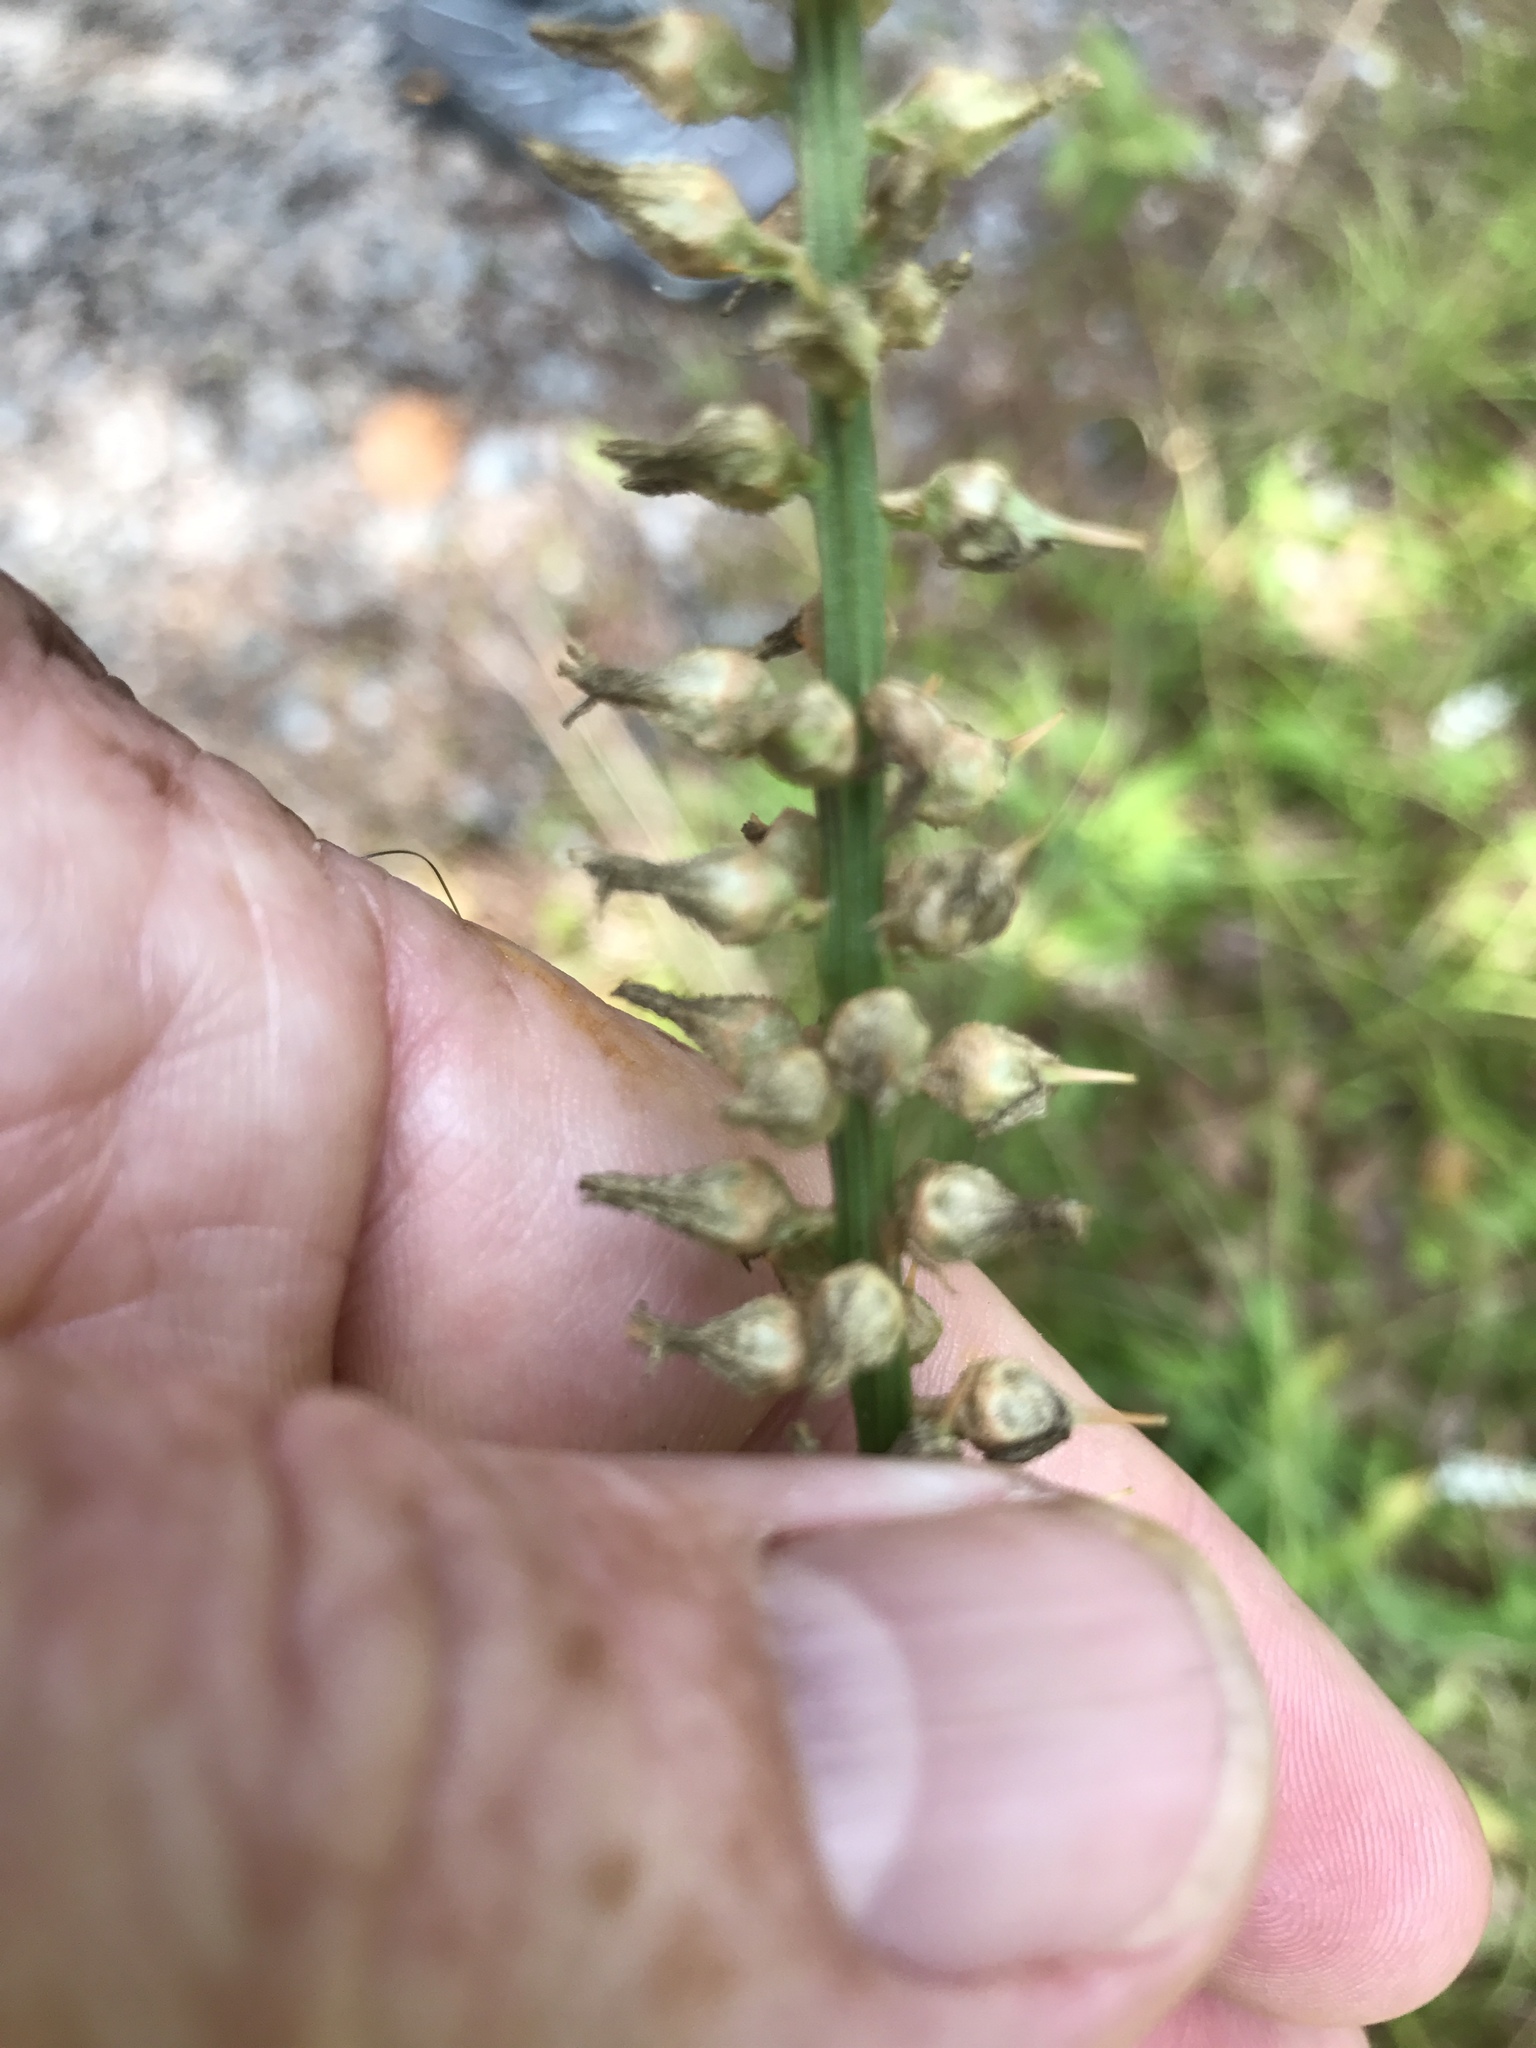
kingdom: Plantae
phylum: Tracheophyta
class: Liliopsida
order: Dioscoreales
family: Nartheciaceae
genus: Aletris
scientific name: Aletris farinosa
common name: Colicroot
